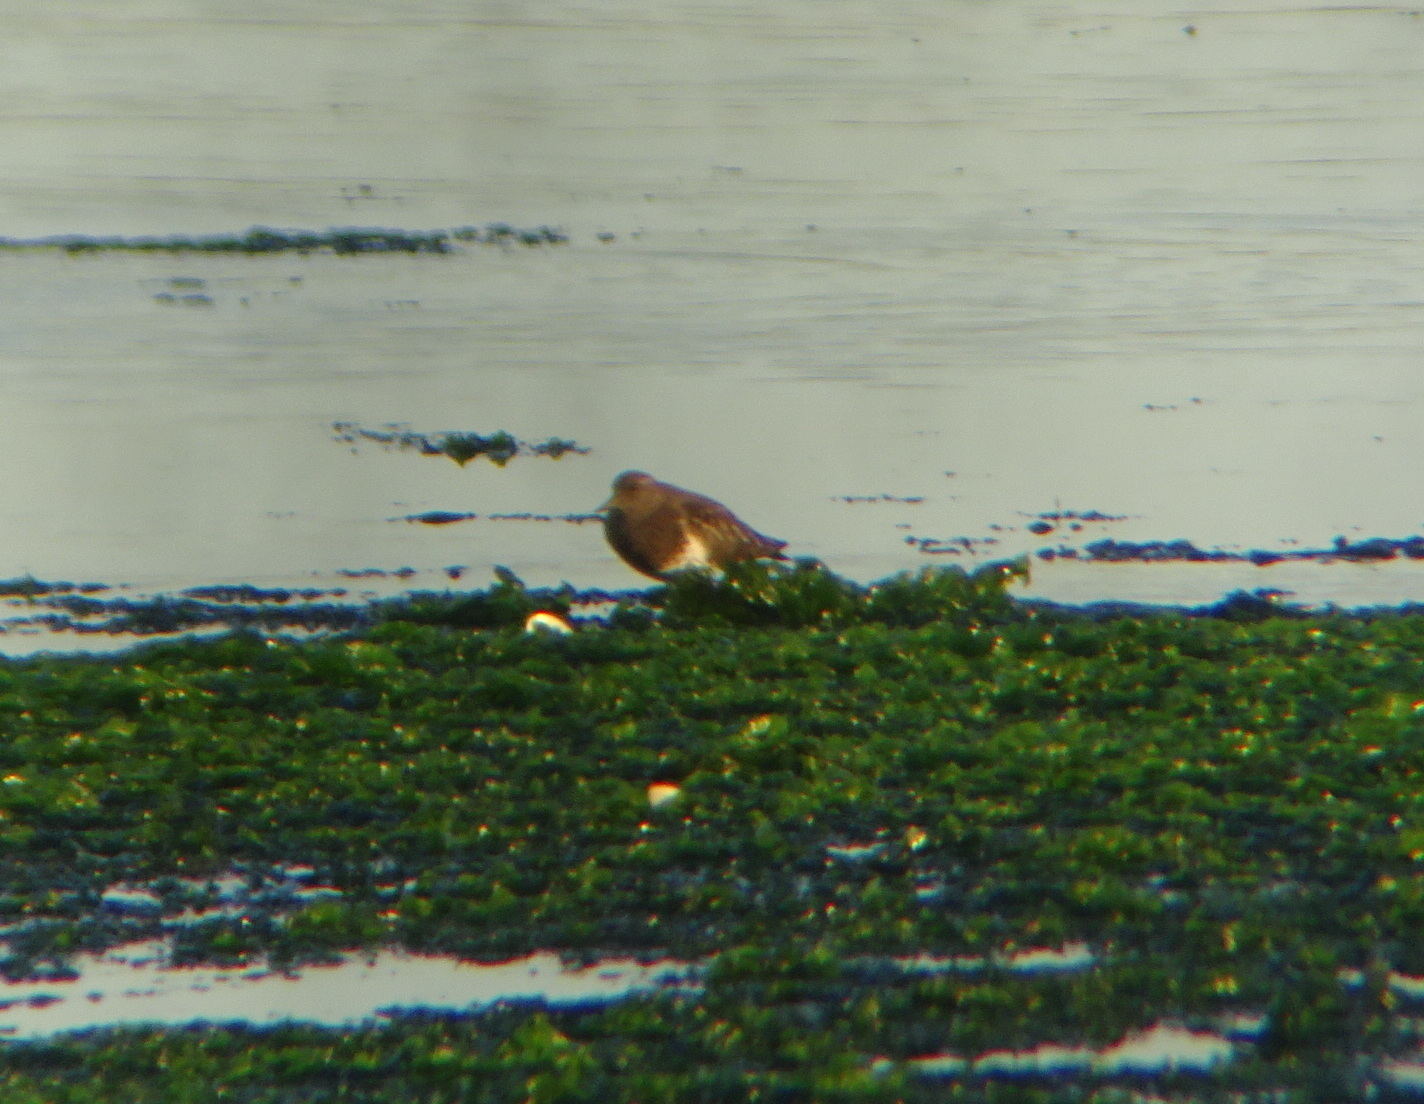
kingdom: Animalia
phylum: Chordata
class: Aves
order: Charadriiformes
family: Scolopacidae
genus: Arenaria
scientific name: Arenaria melanocephala
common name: Black turnstone
